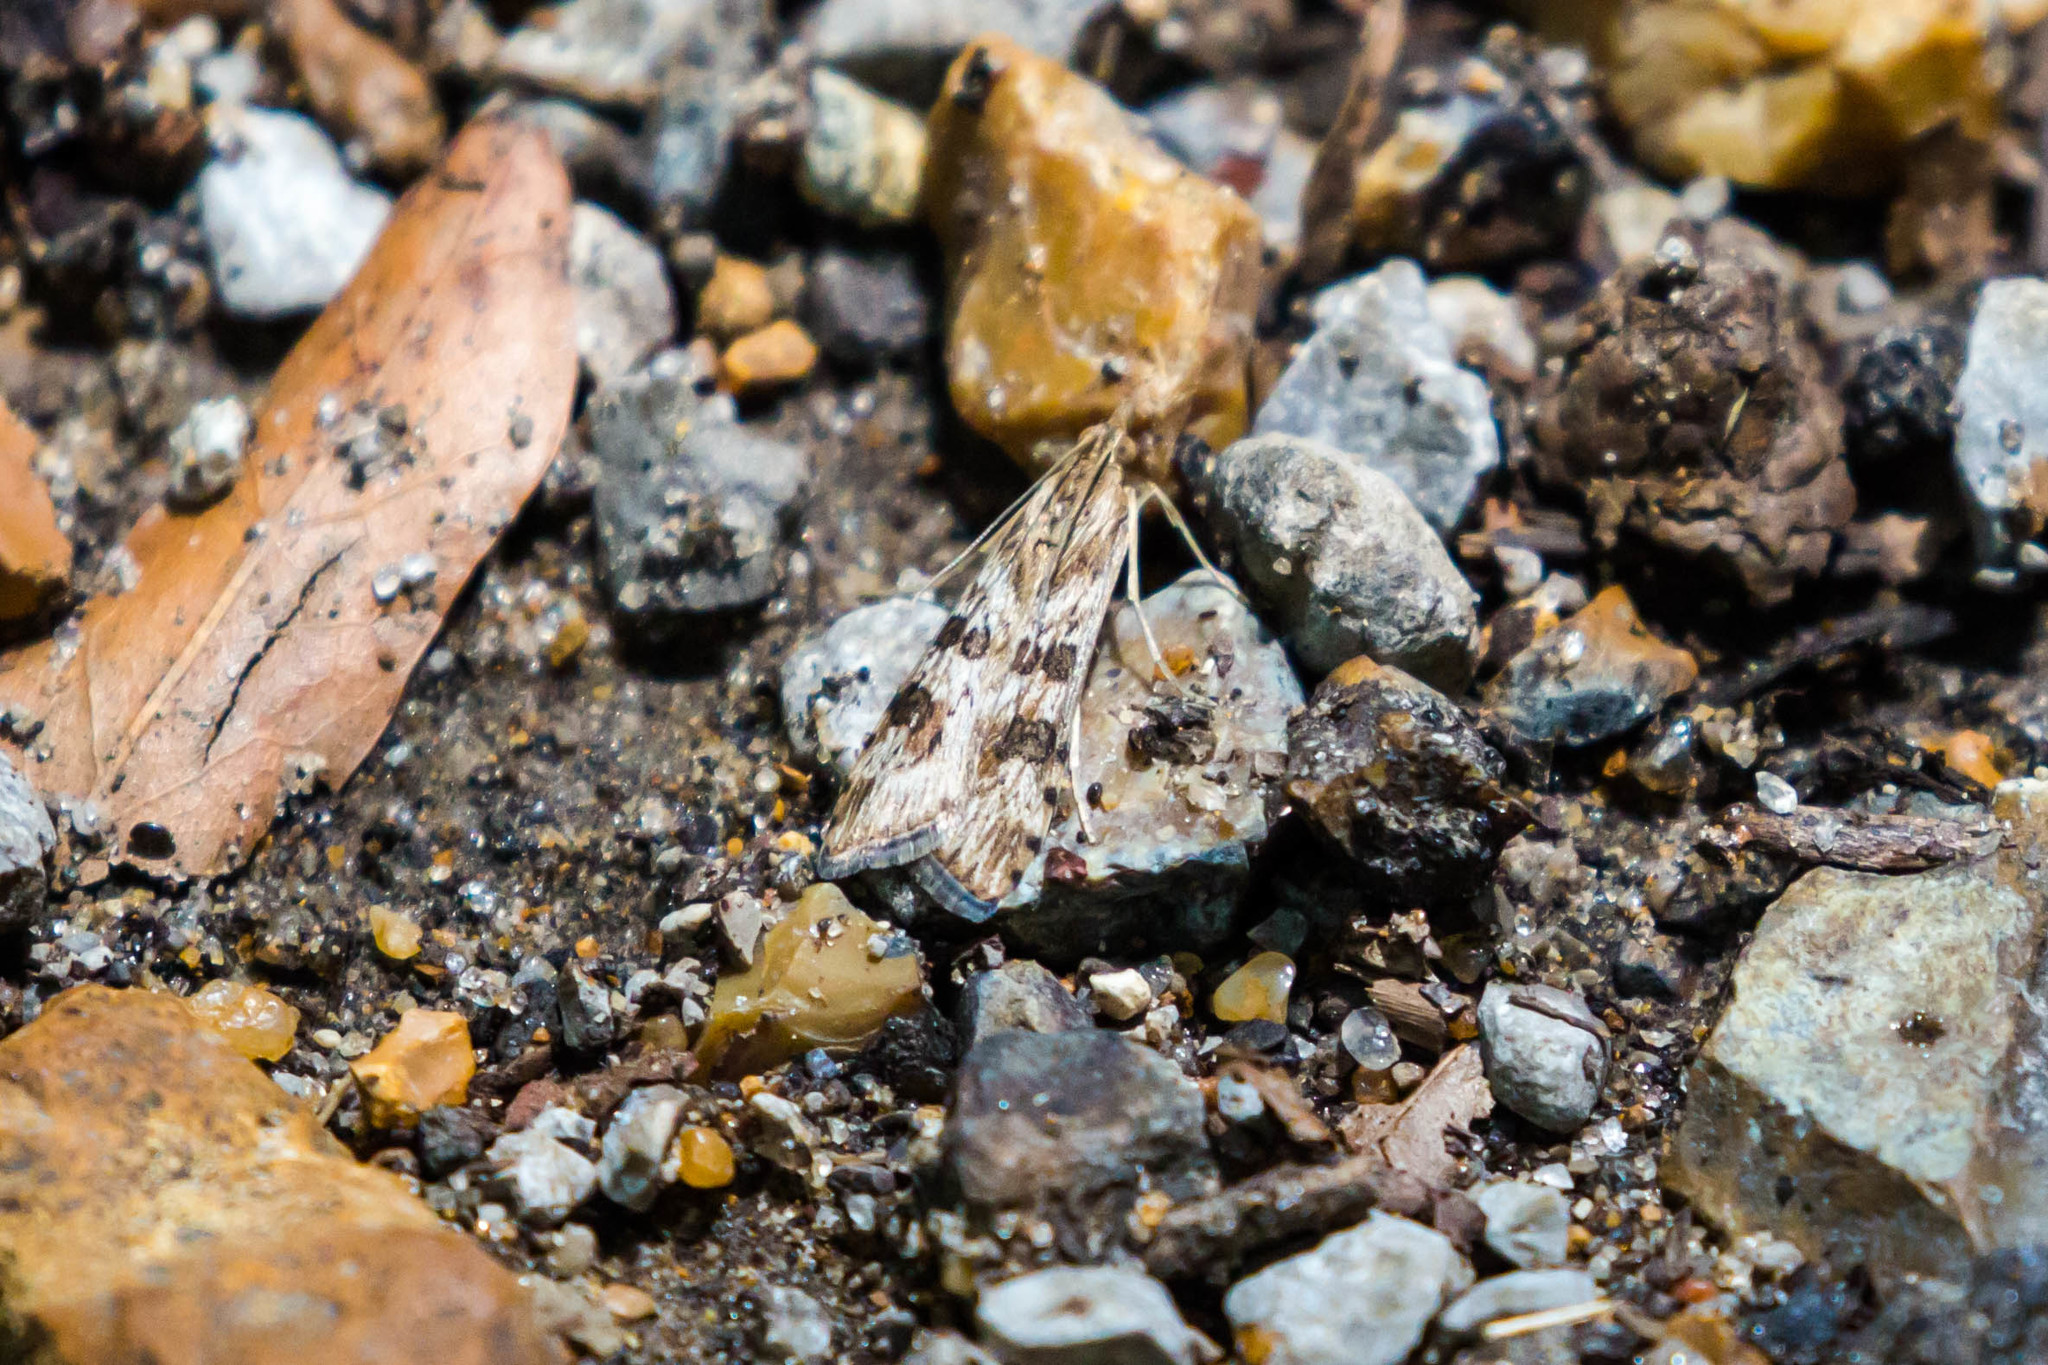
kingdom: Animalia
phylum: Arthropoda
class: Insecta
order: Lepidoptera
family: Crambidae
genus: Nomophila
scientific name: Nomophila nearctica
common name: American rush veneer
